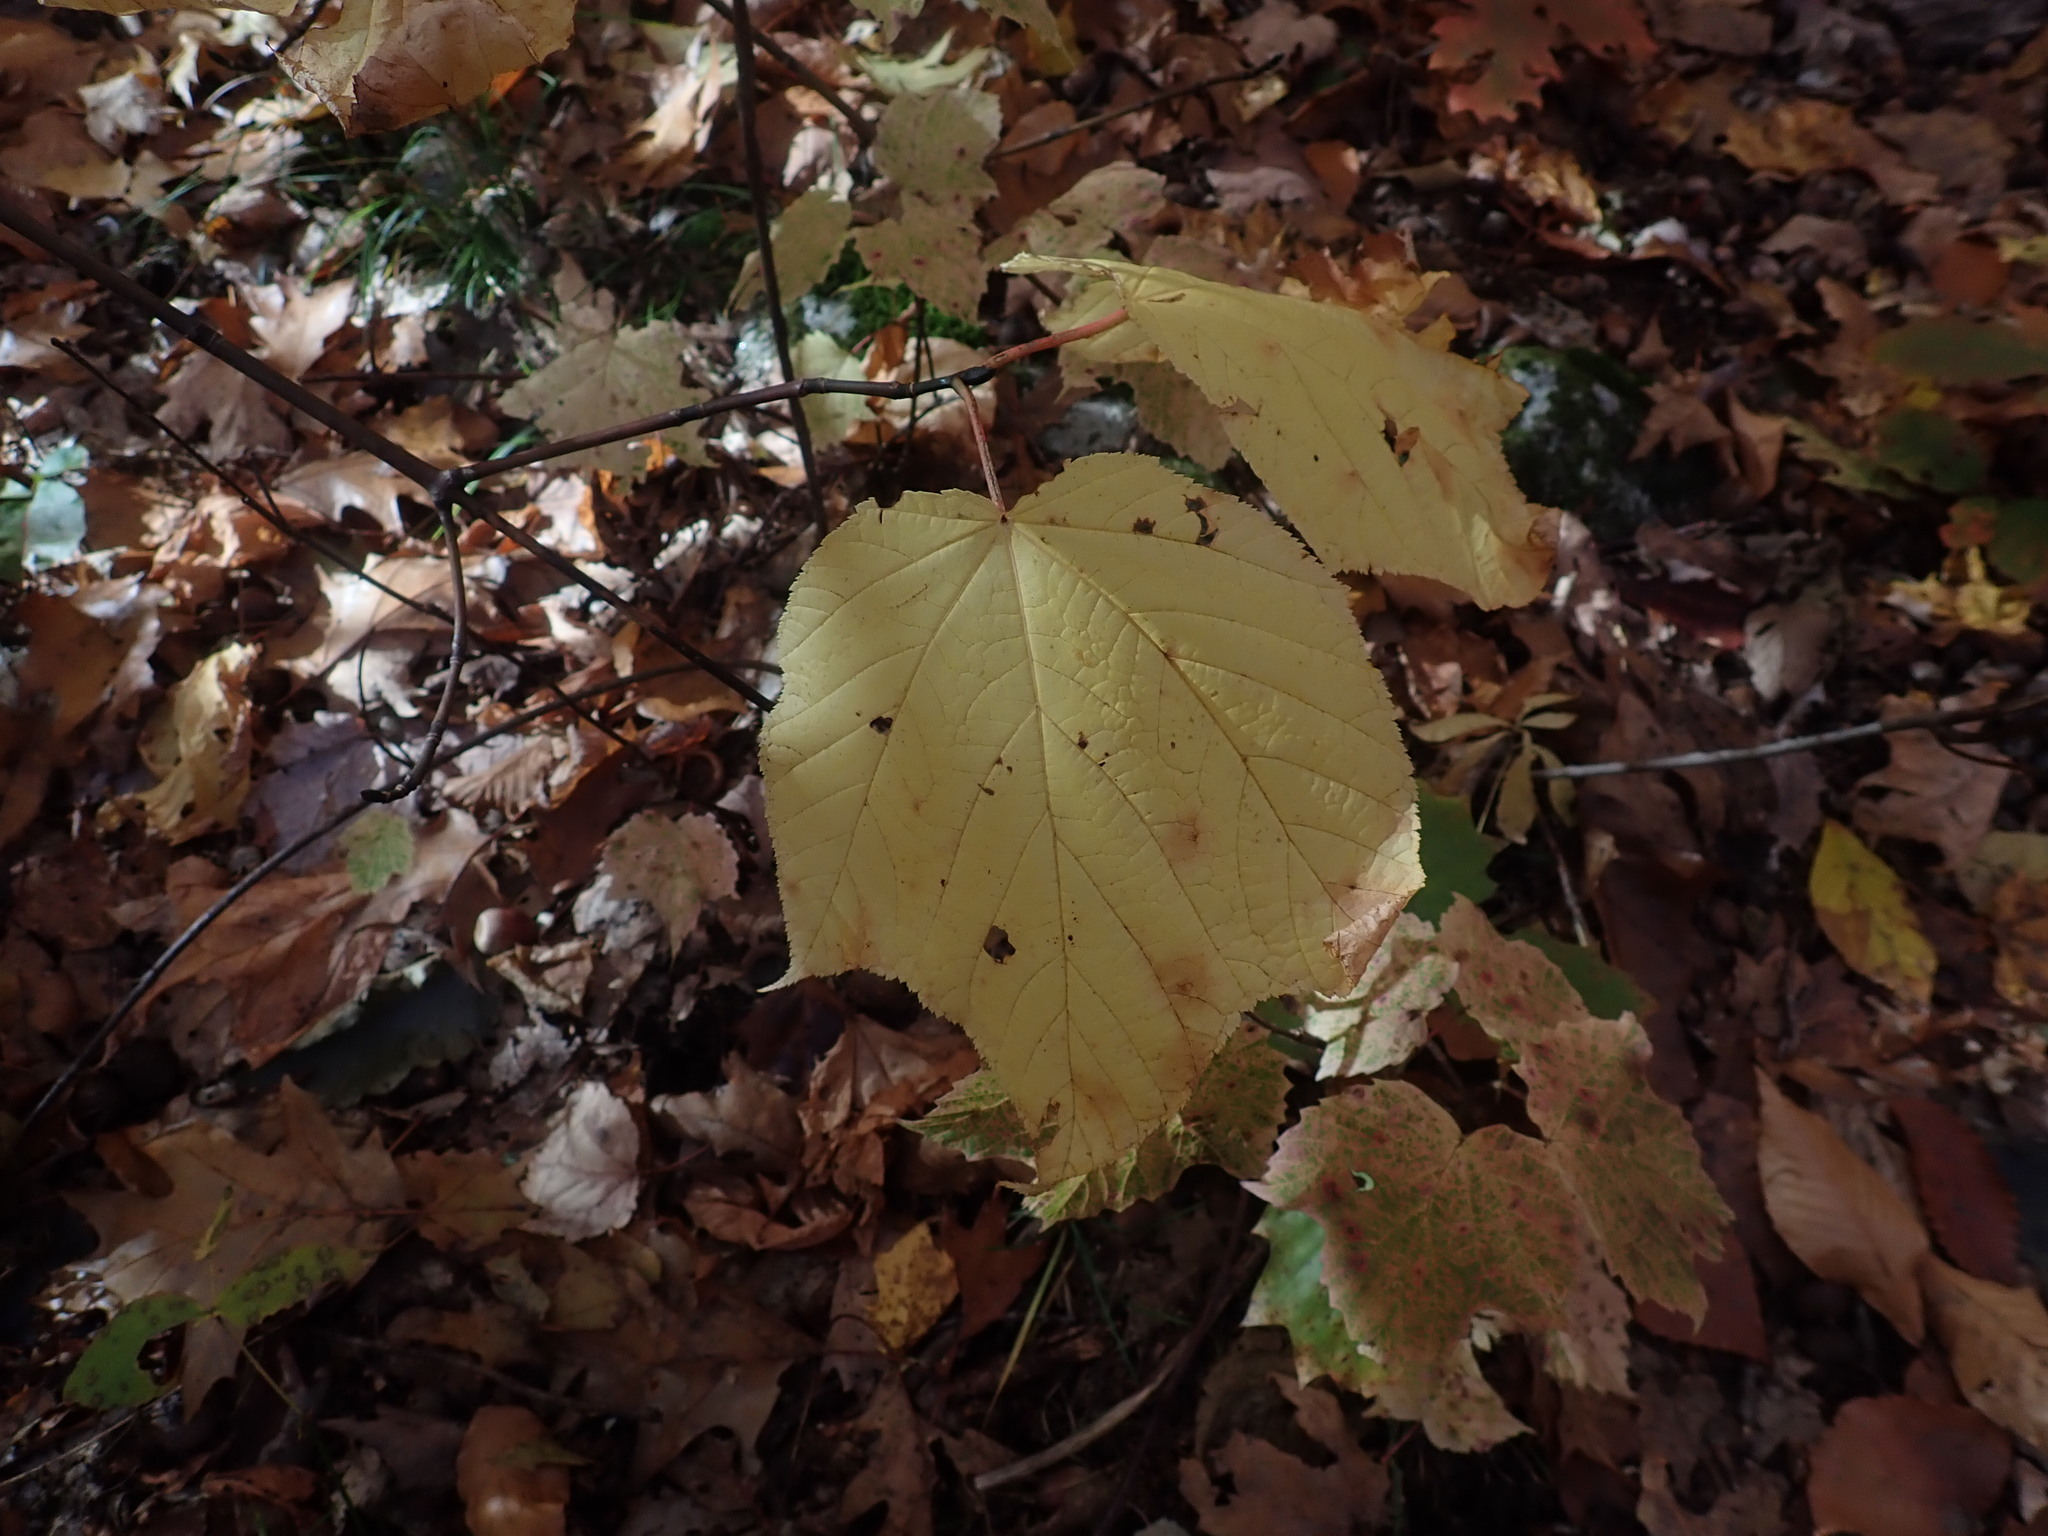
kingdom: Plantae
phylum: Tracheophyta
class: Magnoliopsida
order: Sapindales
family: Sapindaceae
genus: Acer
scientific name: Acer pensylvanicum
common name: Moosewood
